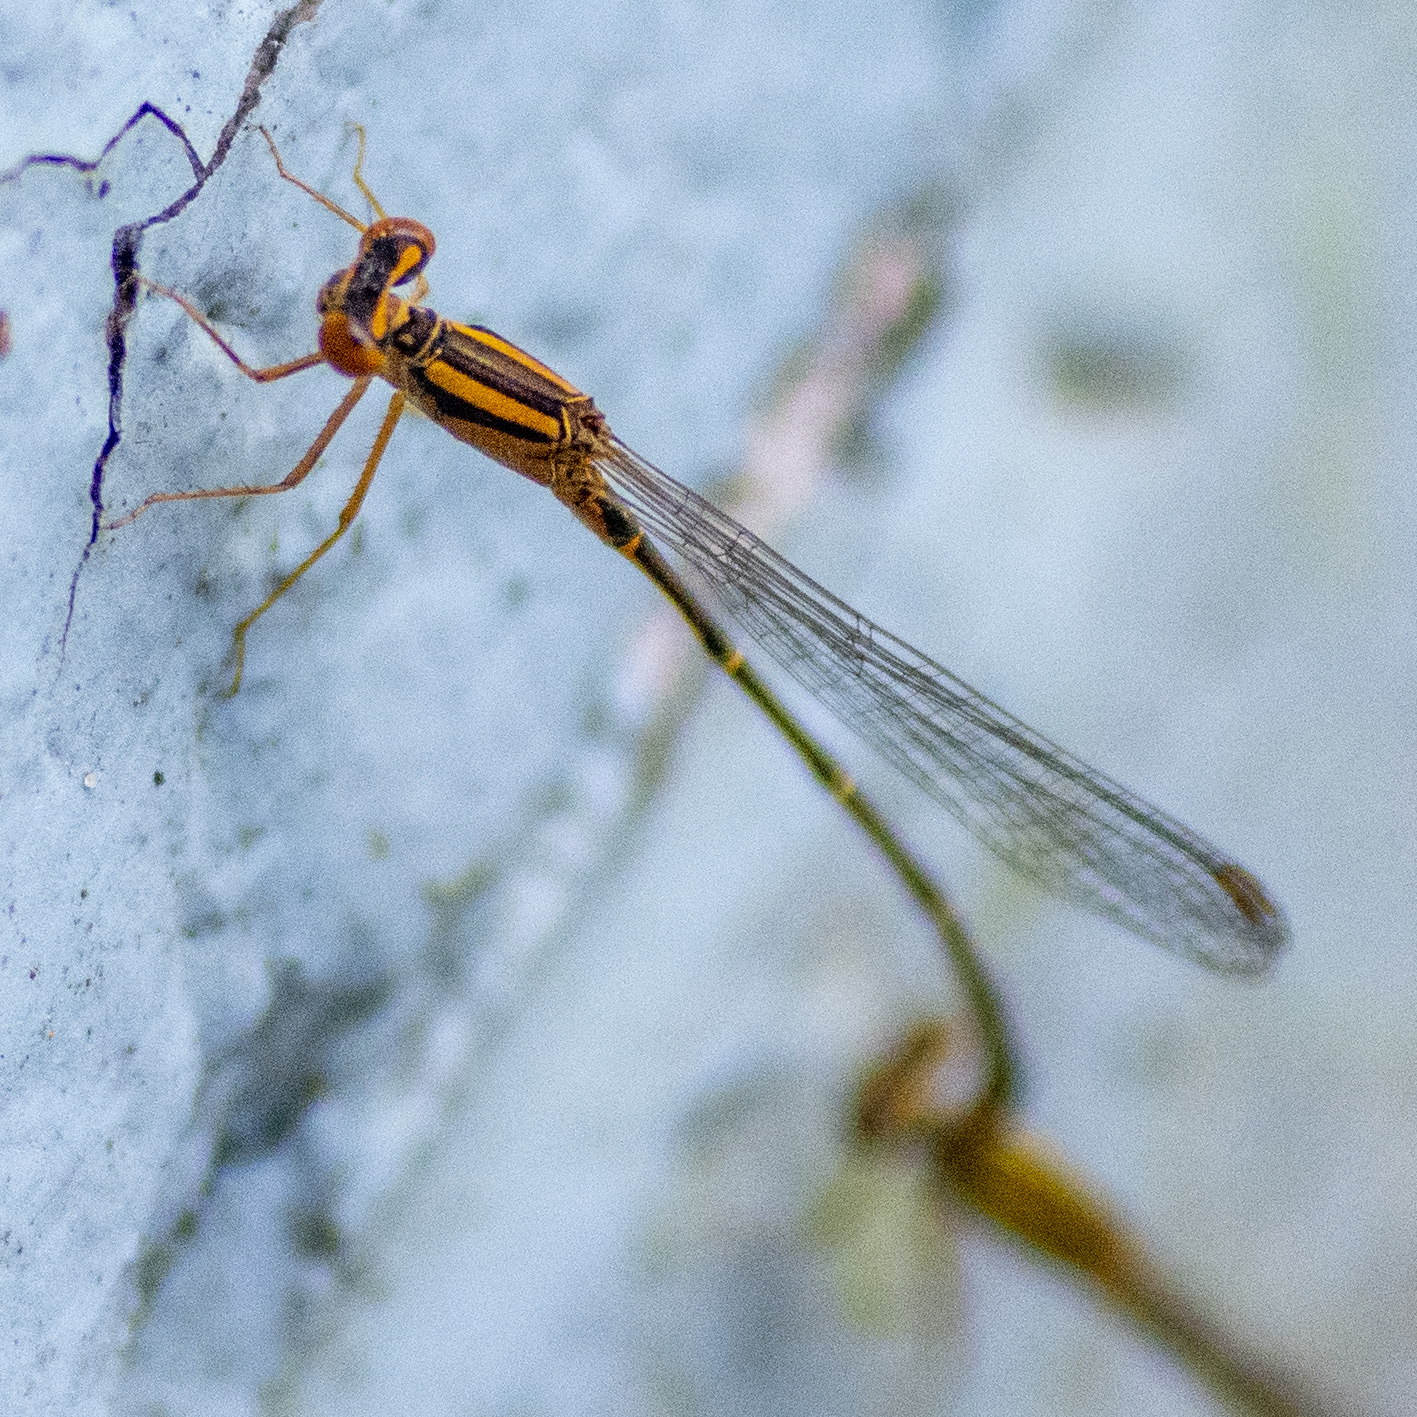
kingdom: Animalia
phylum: Arthropoda
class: Insecta
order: Odonata
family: Coenagrionidae
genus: Enallagma
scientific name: Enallagma signatum
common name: Orange bluet
